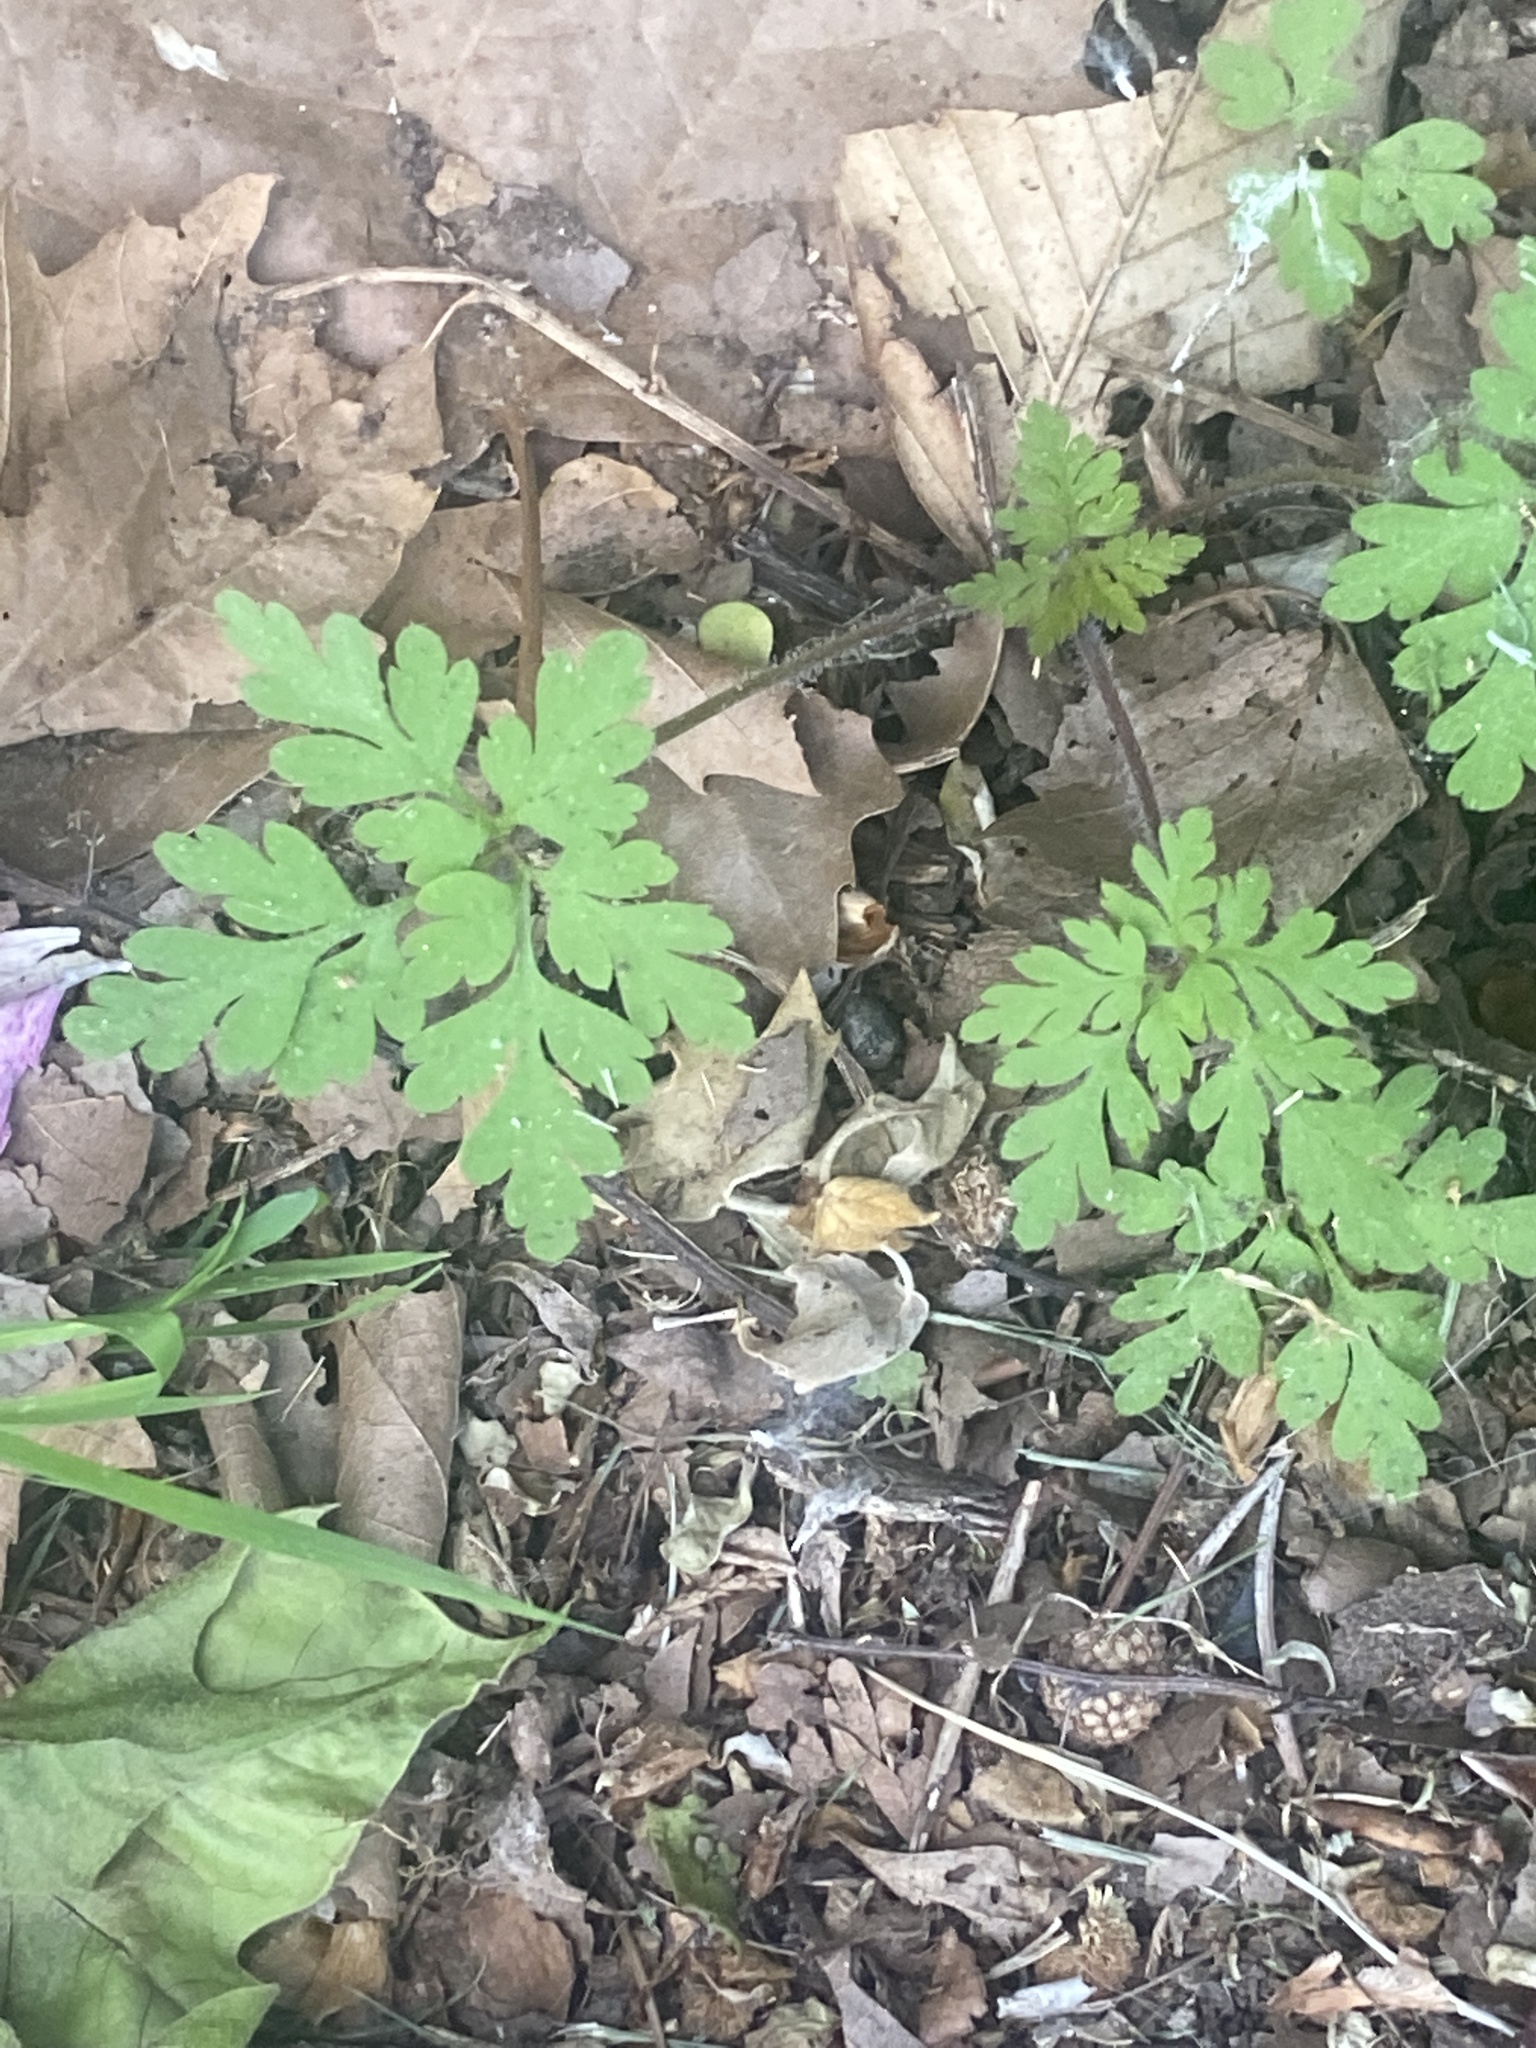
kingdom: Plantae
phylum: Tracheophyta
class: Magnoliopsida
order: Geraniales
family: Geraniaceae
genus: Geranium
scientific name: Geranium robertianum
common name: Herb-robert
